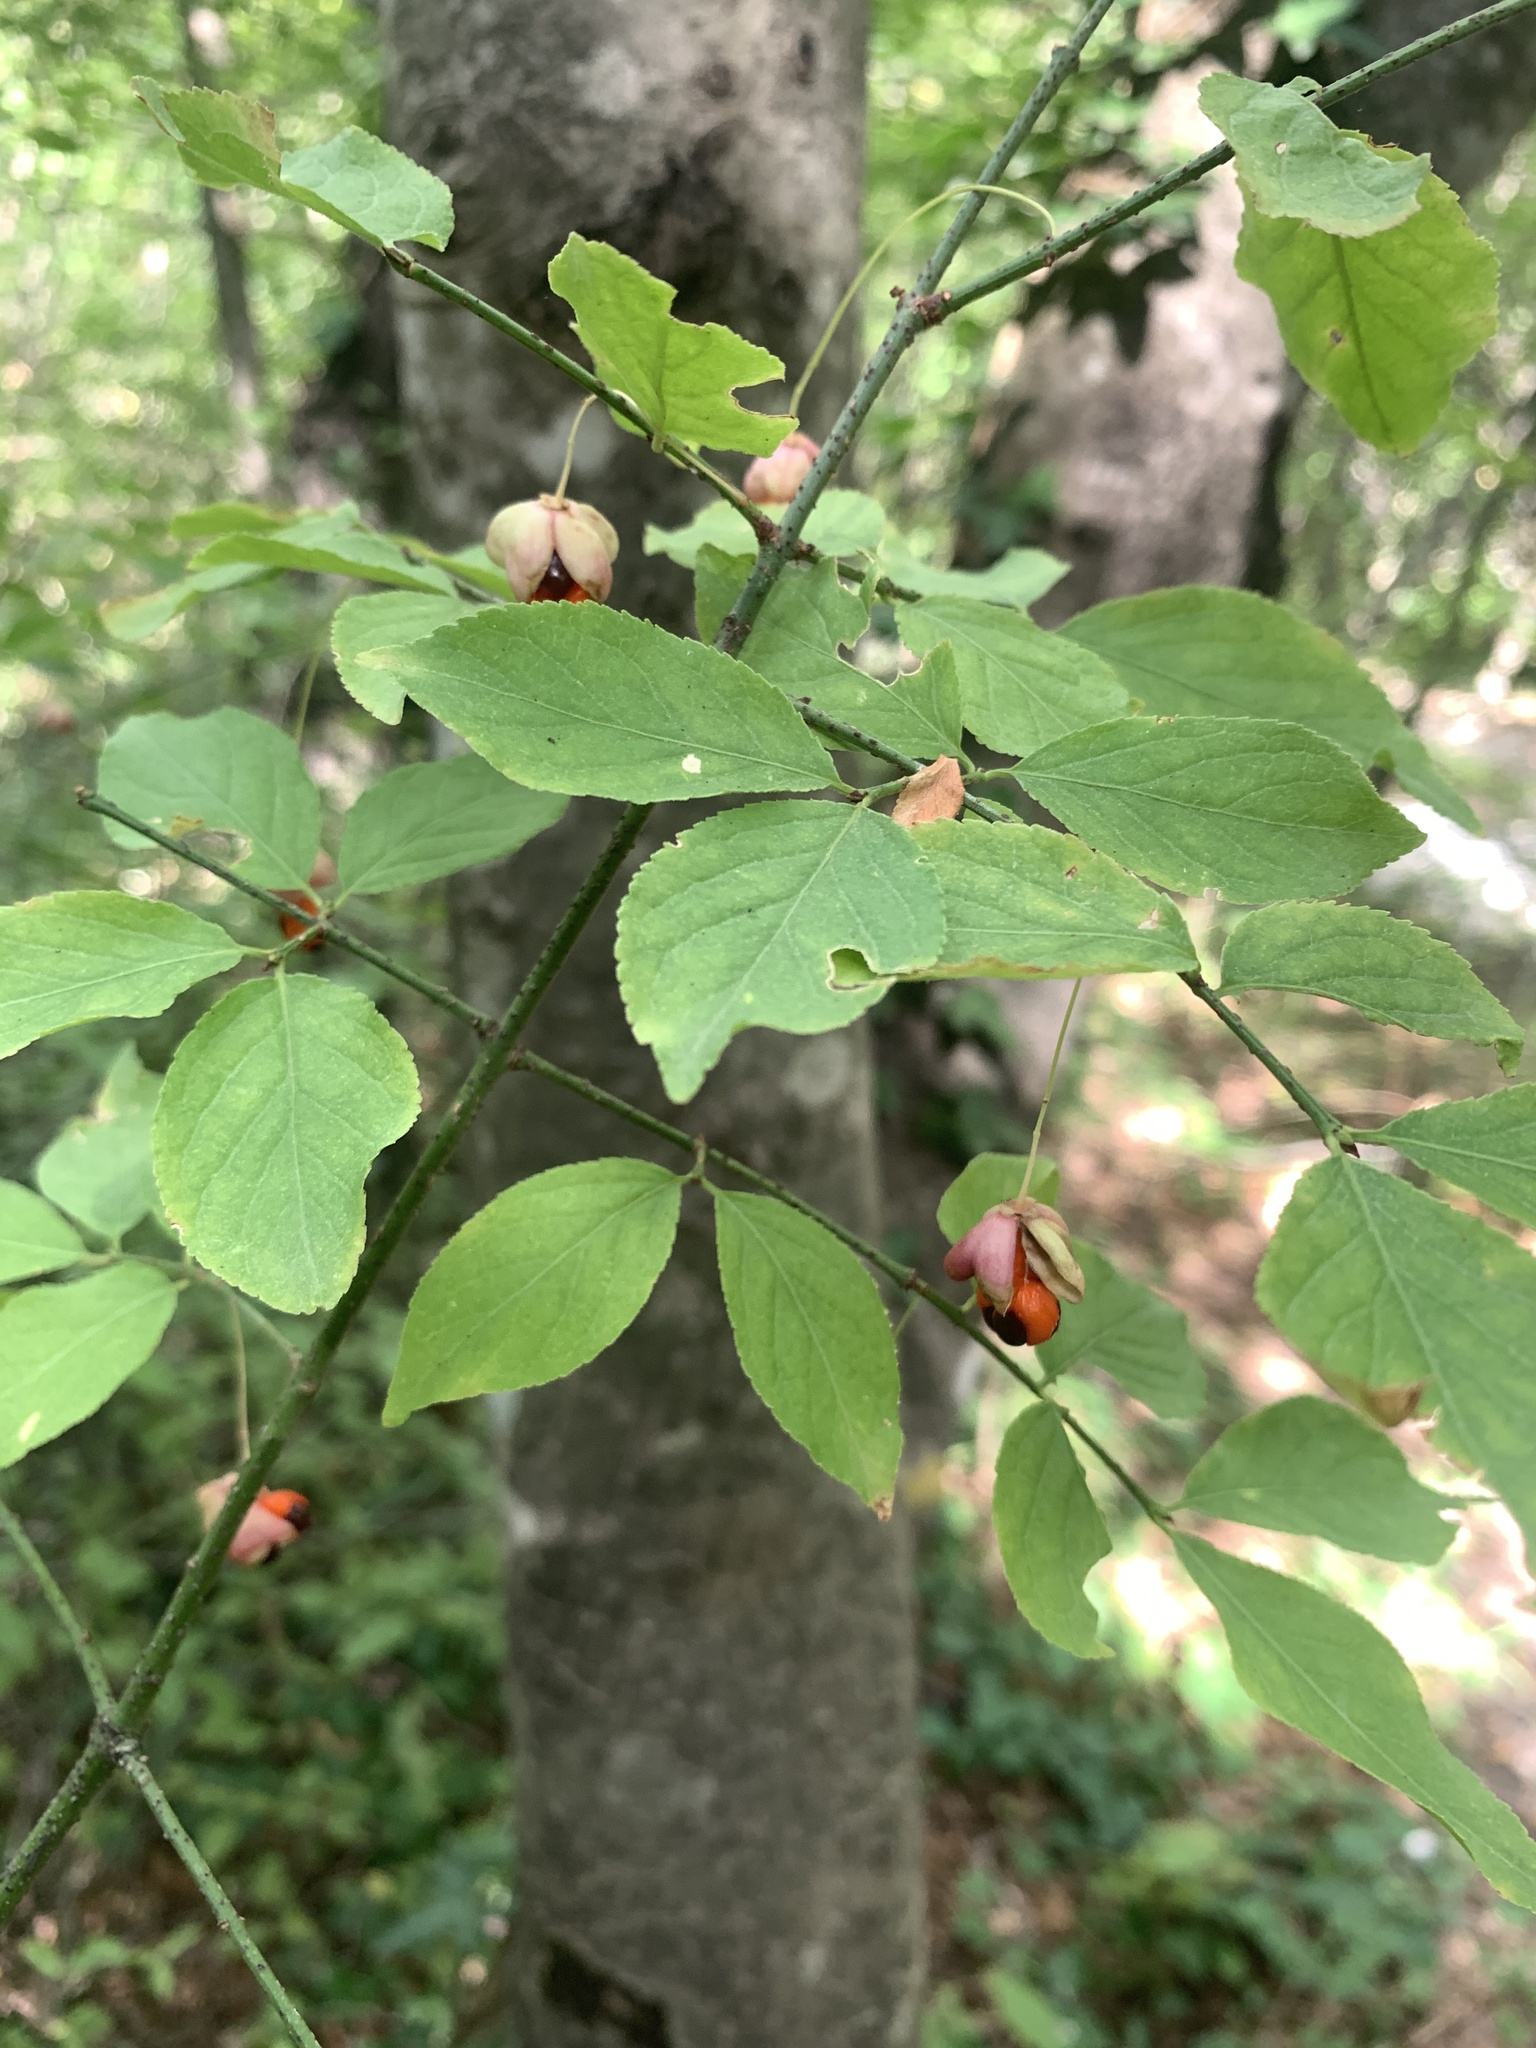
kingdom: Plantae
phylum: Tracheophyta
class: Magnoliopsida
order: Celastrales
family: Celastraceae
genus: Euonymus
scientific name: Euonymus verrucosus
